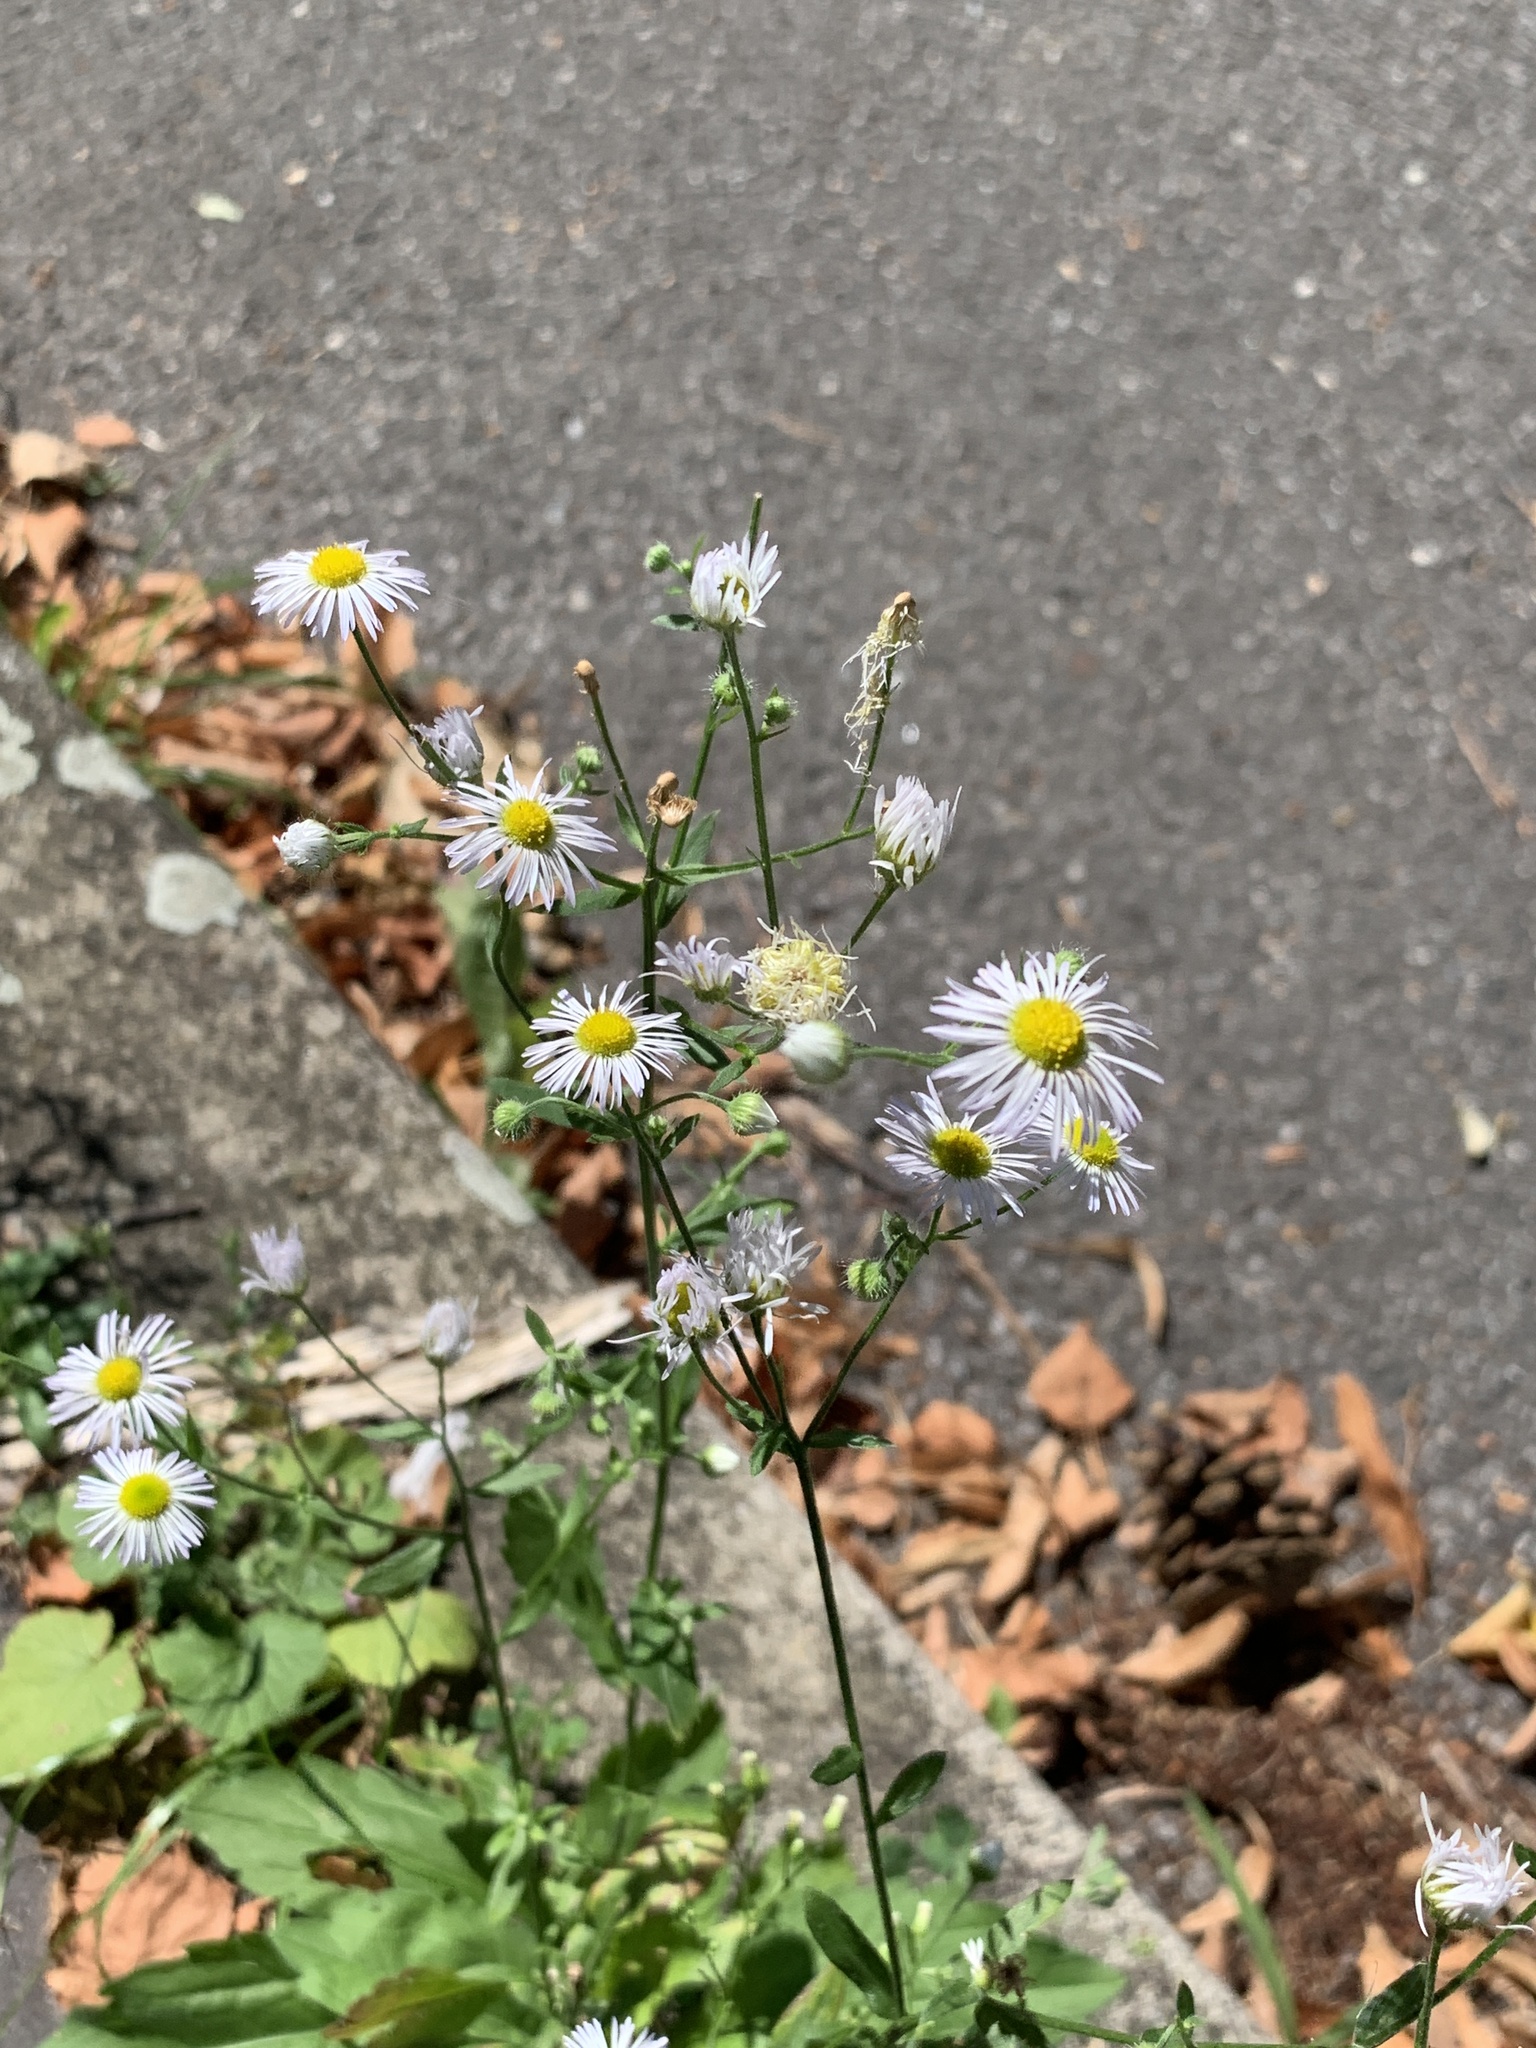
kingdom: Plantae
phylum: Tracheophyta
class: Magnoliopsida
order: Asterales
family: Asteraceae
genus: Erigeron
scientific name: Erigeron annuus
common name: Tall fleabane
